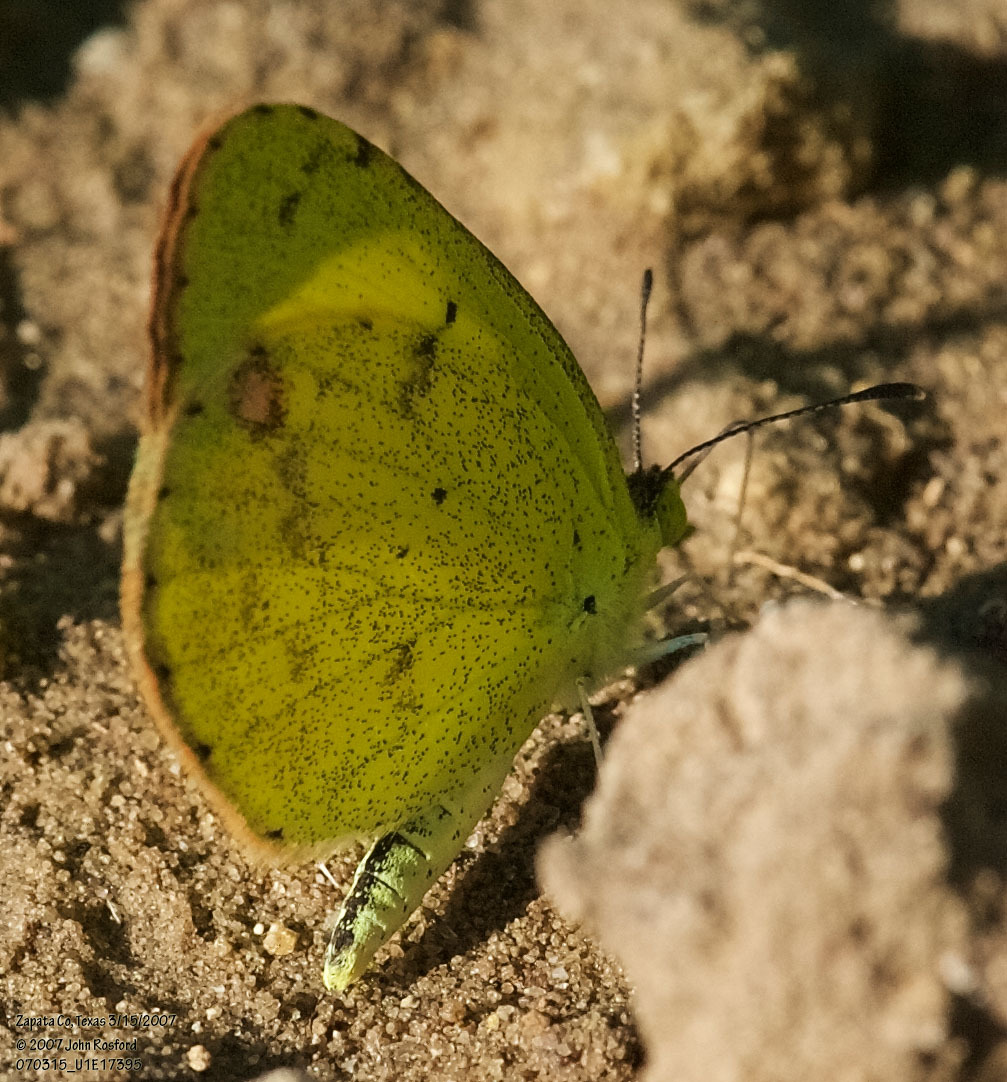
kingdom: Animalia
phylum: Arthropoda
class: Insecta
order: Lepidoptera
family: Pieridae
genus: Pyrisitia
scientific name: Pyrisitia lisa
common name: Little yellow
